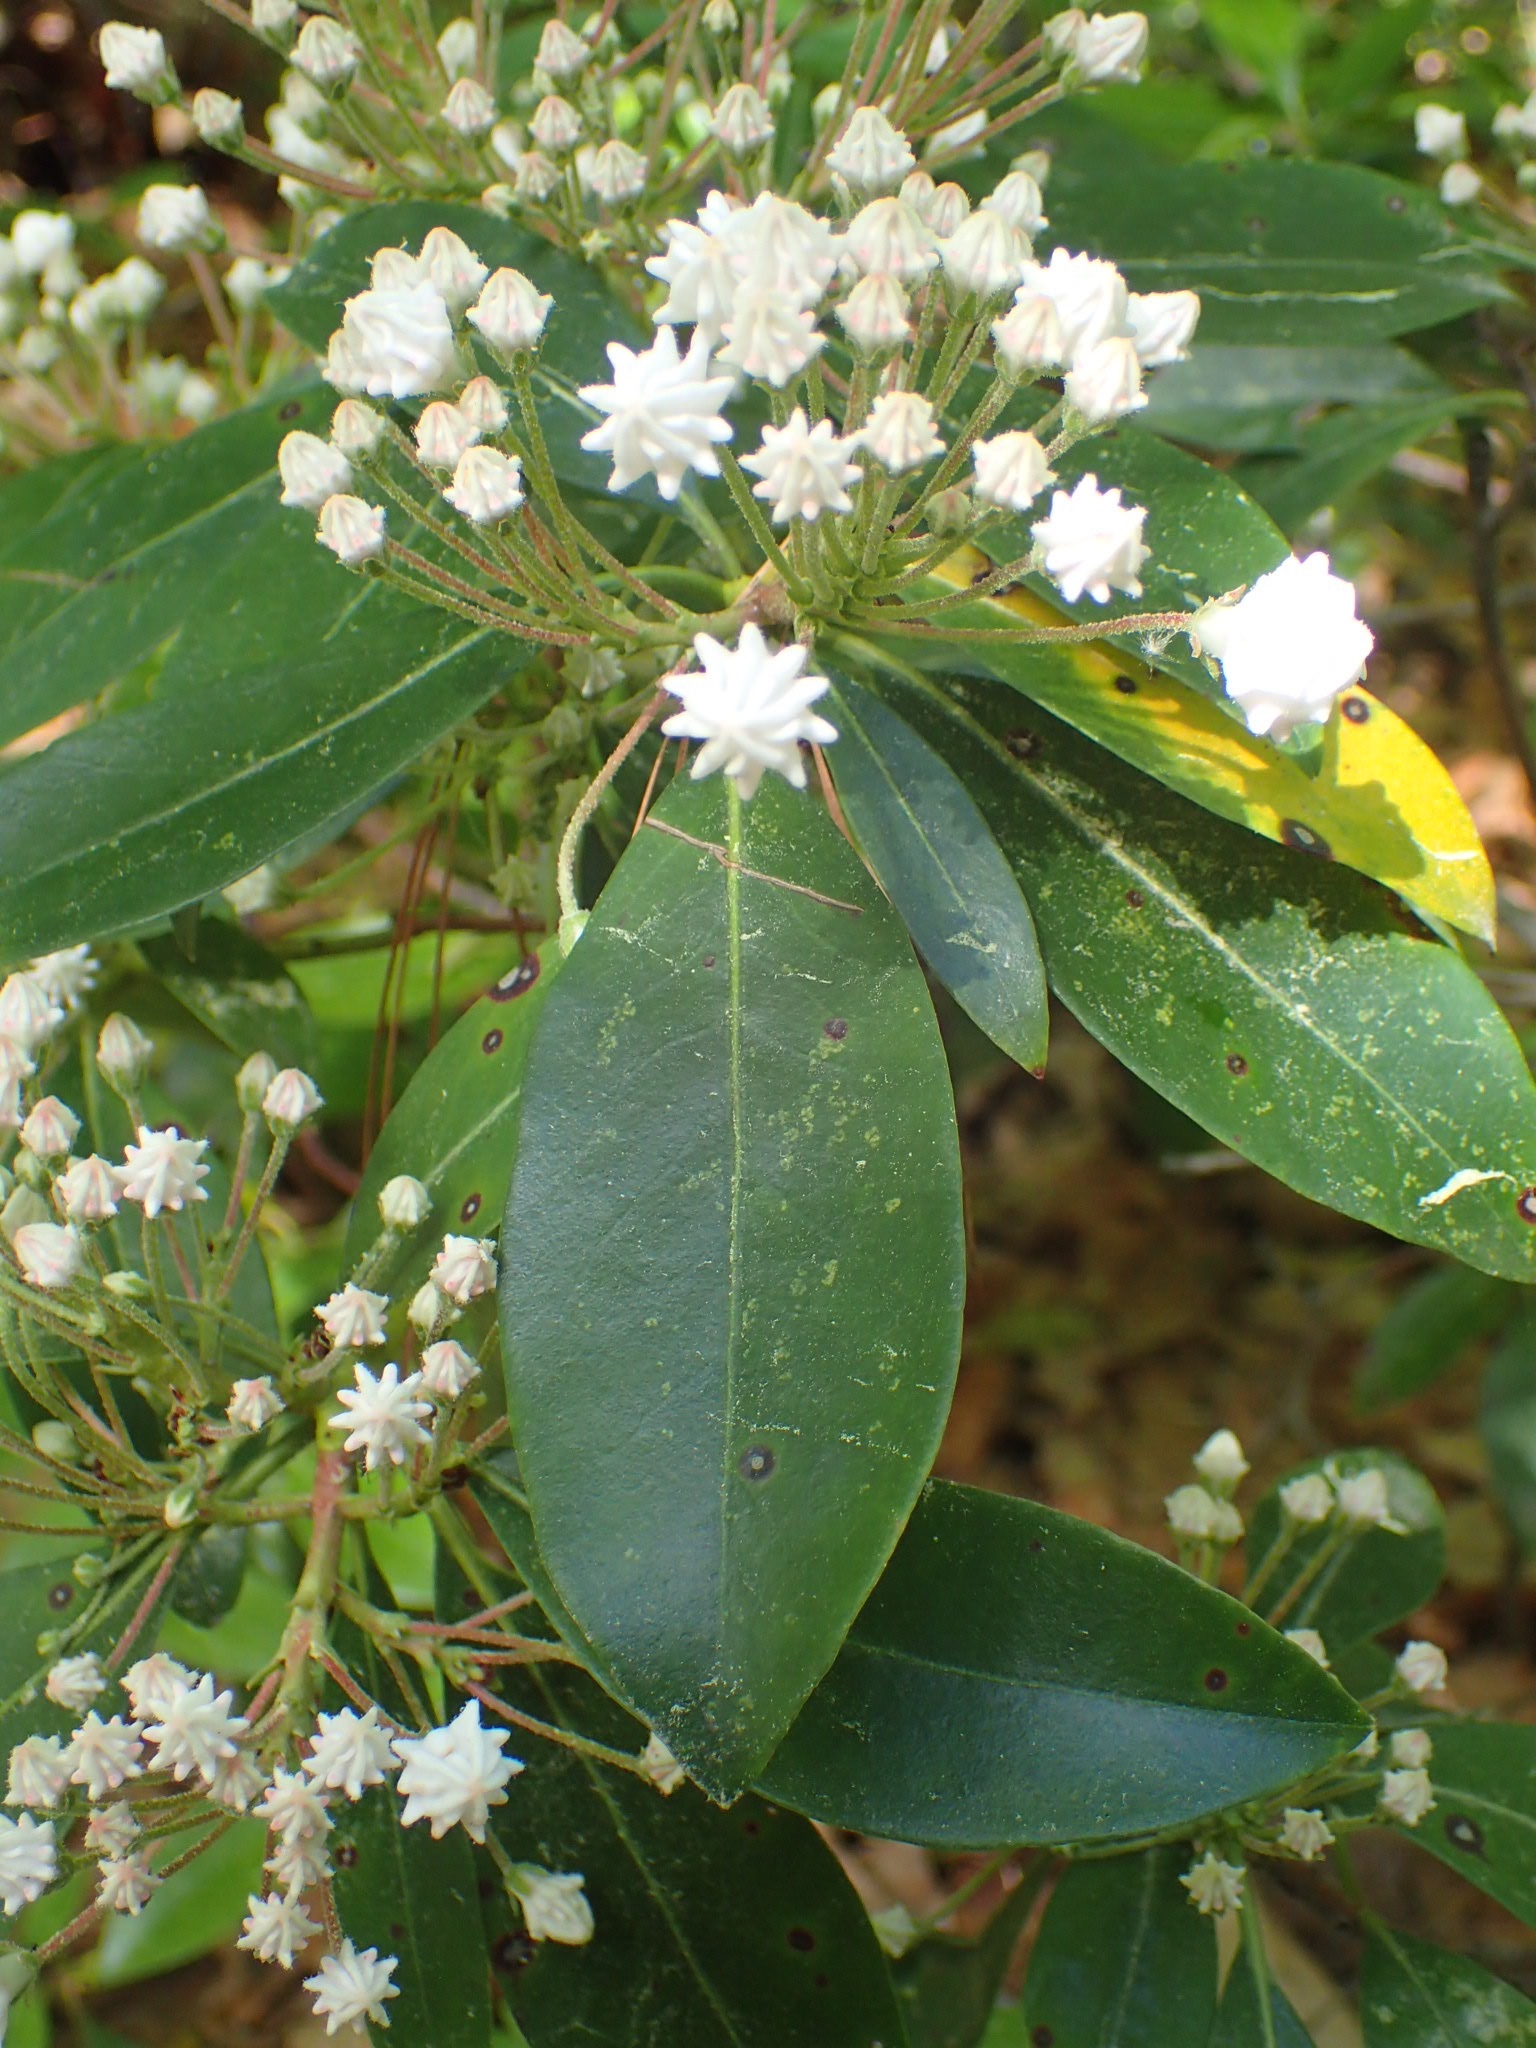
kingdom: Plantae
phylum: Tracheophyta
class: Magnoliopsida
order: Ericales
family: Ericaceae
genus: Kalmia
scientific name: Kalmia latifolia
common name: Mountain-laurel
